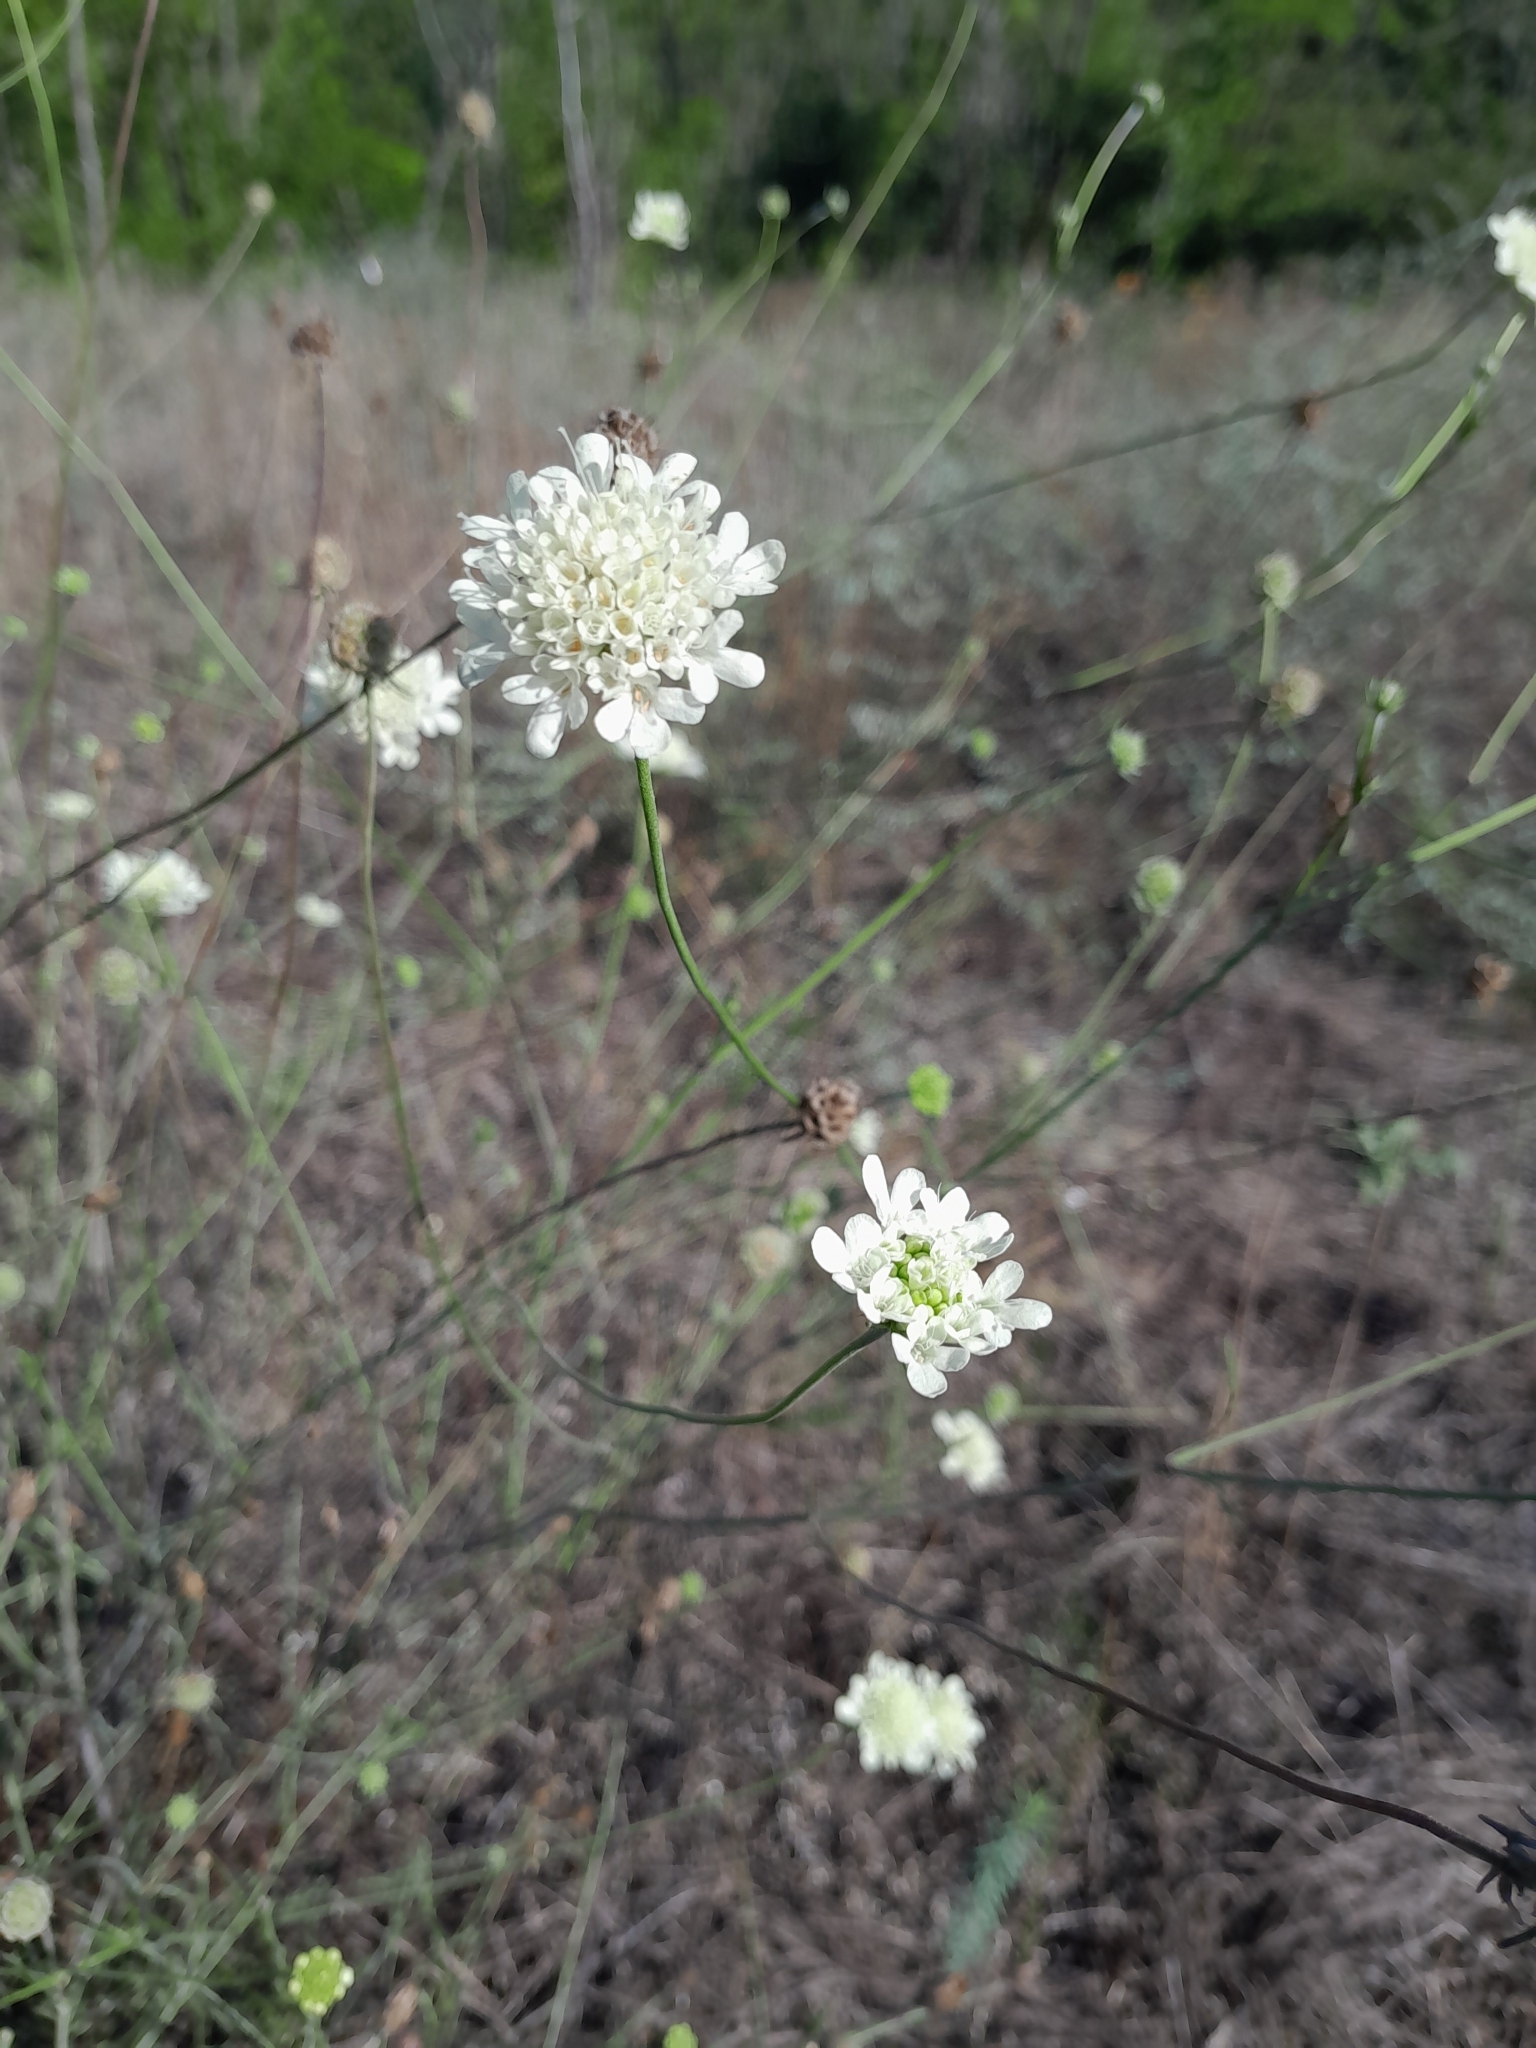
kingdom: Plantae
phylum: Tracheophyta
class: Magnoliopsida
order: Dipsacales
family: Caprifoliaceae
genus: Scabiosa
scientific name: Scabiosa ochroleuca
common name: Cream pincushions
